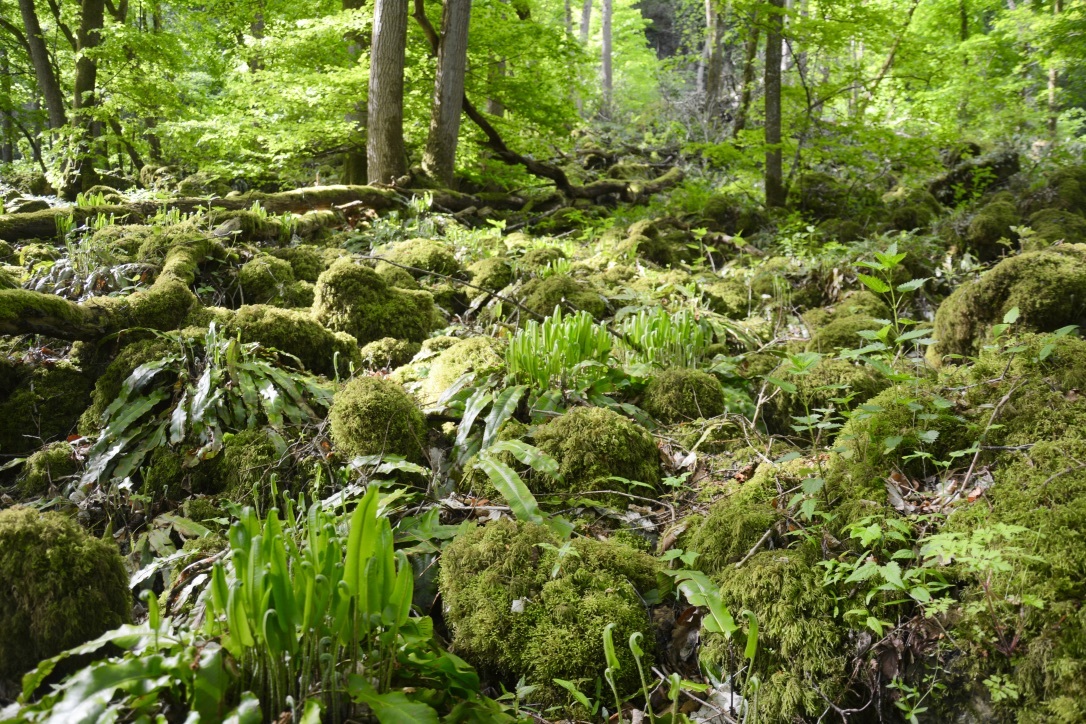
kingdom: Plantae
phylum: Tracheophyta
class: Polypodiopsida
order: Polypodiales
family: Aspleniaceae
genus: Asplenium
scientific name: Asplenium scolopendrium
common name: Hart's-tongue fern
